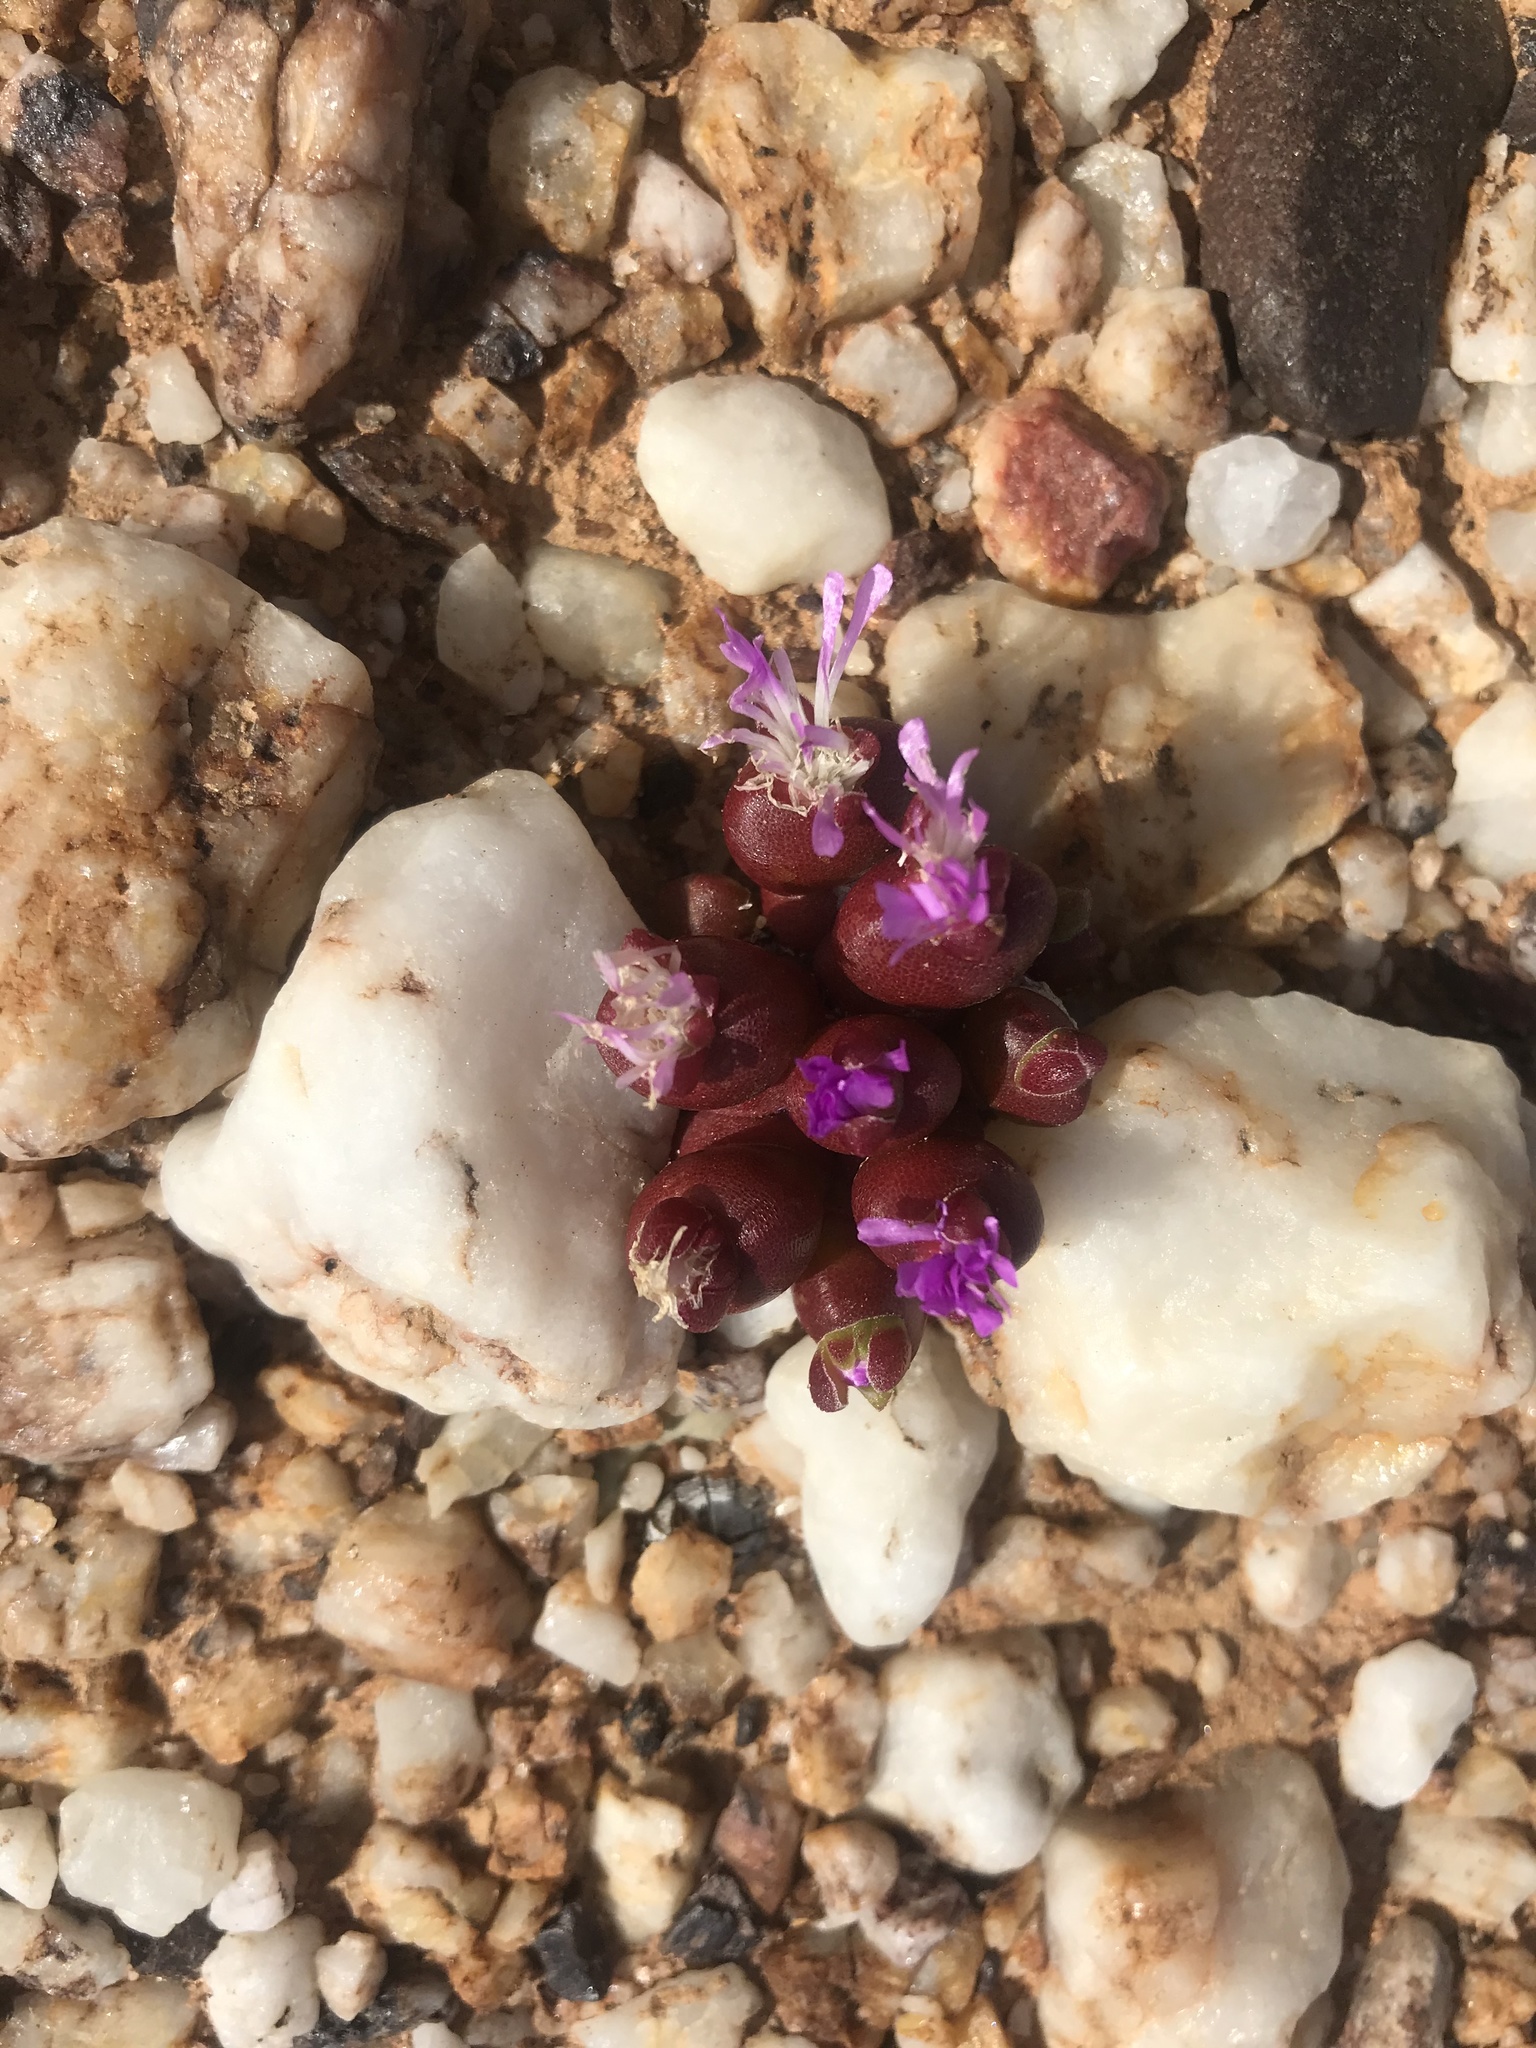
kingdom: Plantae
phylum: Tracheophyta
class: Magnoliopsida
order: Caryophyllales
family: Aizoaceae
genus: Oophytum
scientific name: Oophytum nanum
